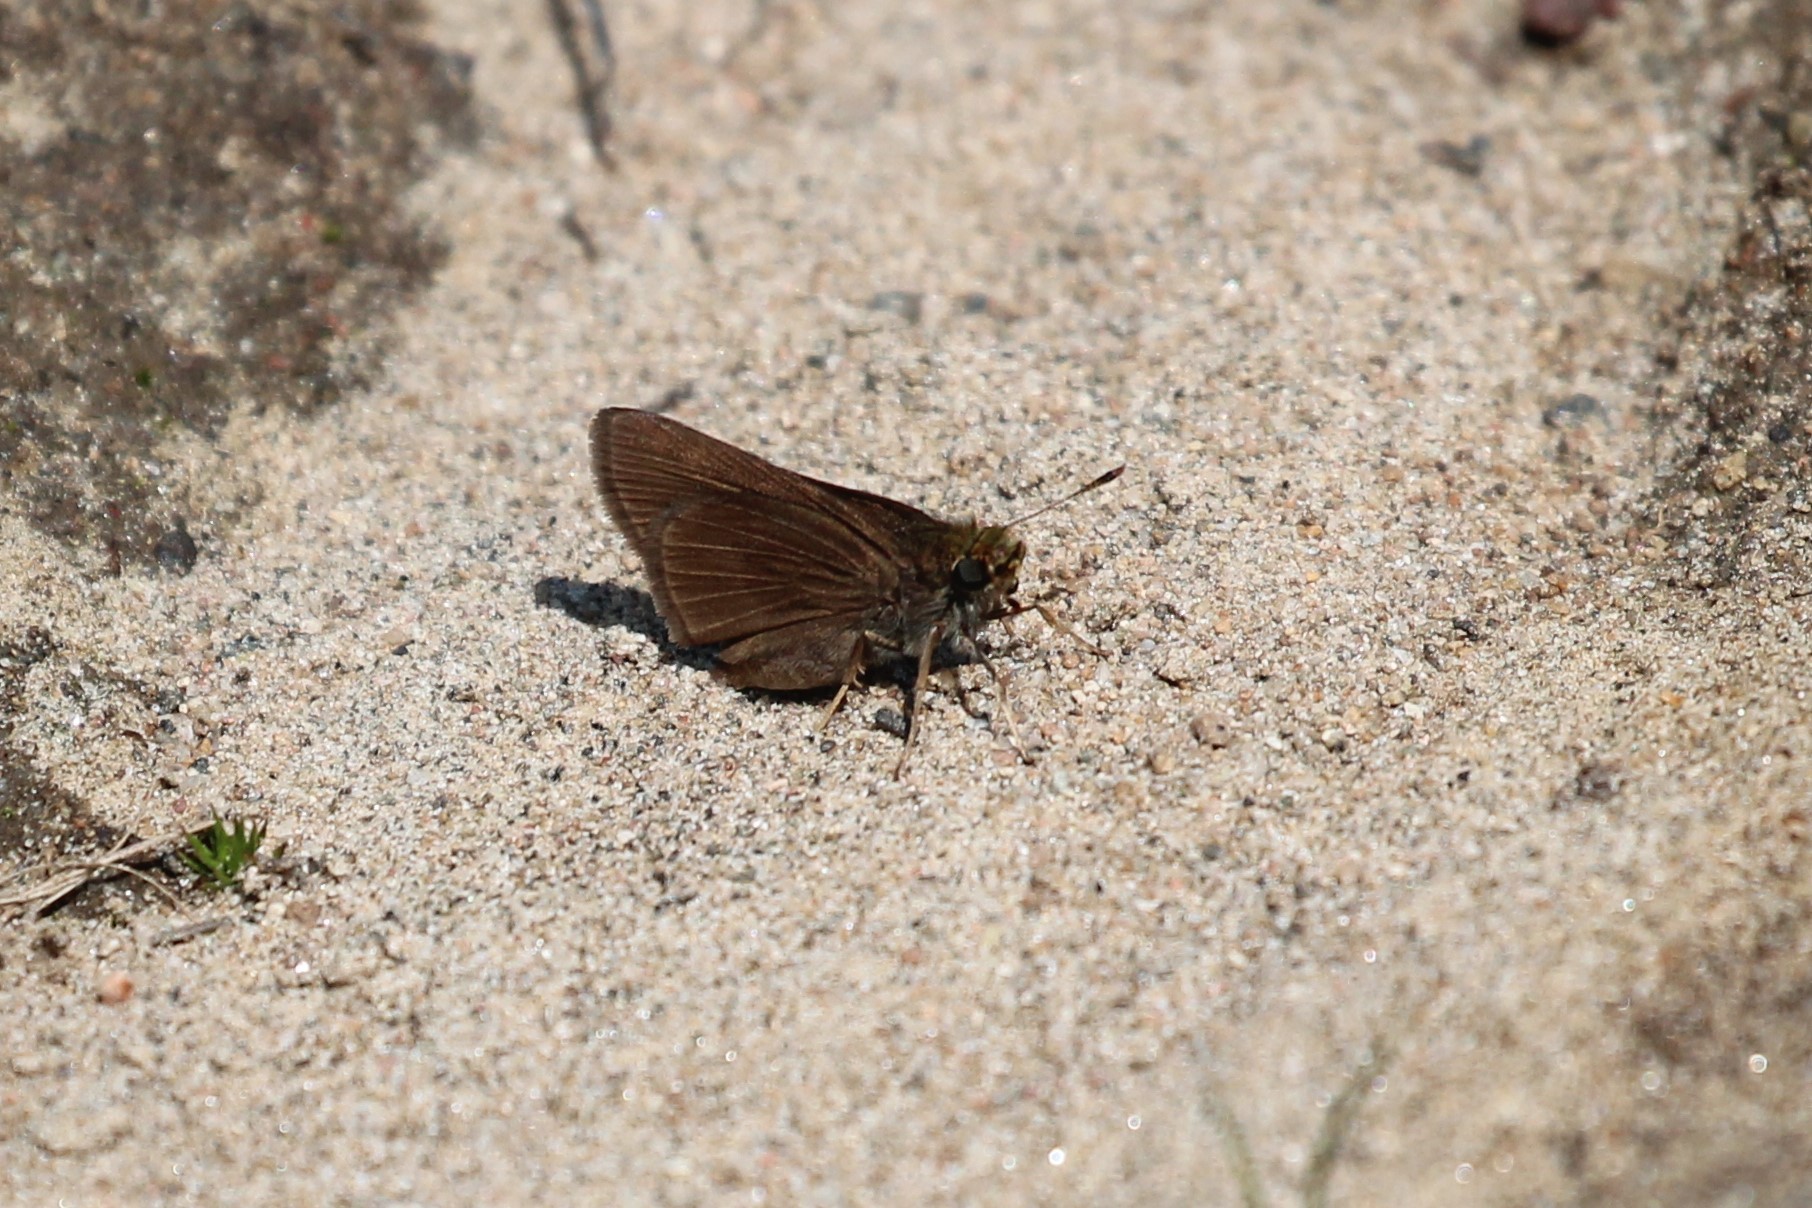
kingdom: Animalia
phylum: Arthropoda
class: Insecta
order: Lepidoptera
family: Hesperiidae
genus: Euphyes
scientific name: Euphyes vestris
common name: Dun skipper
